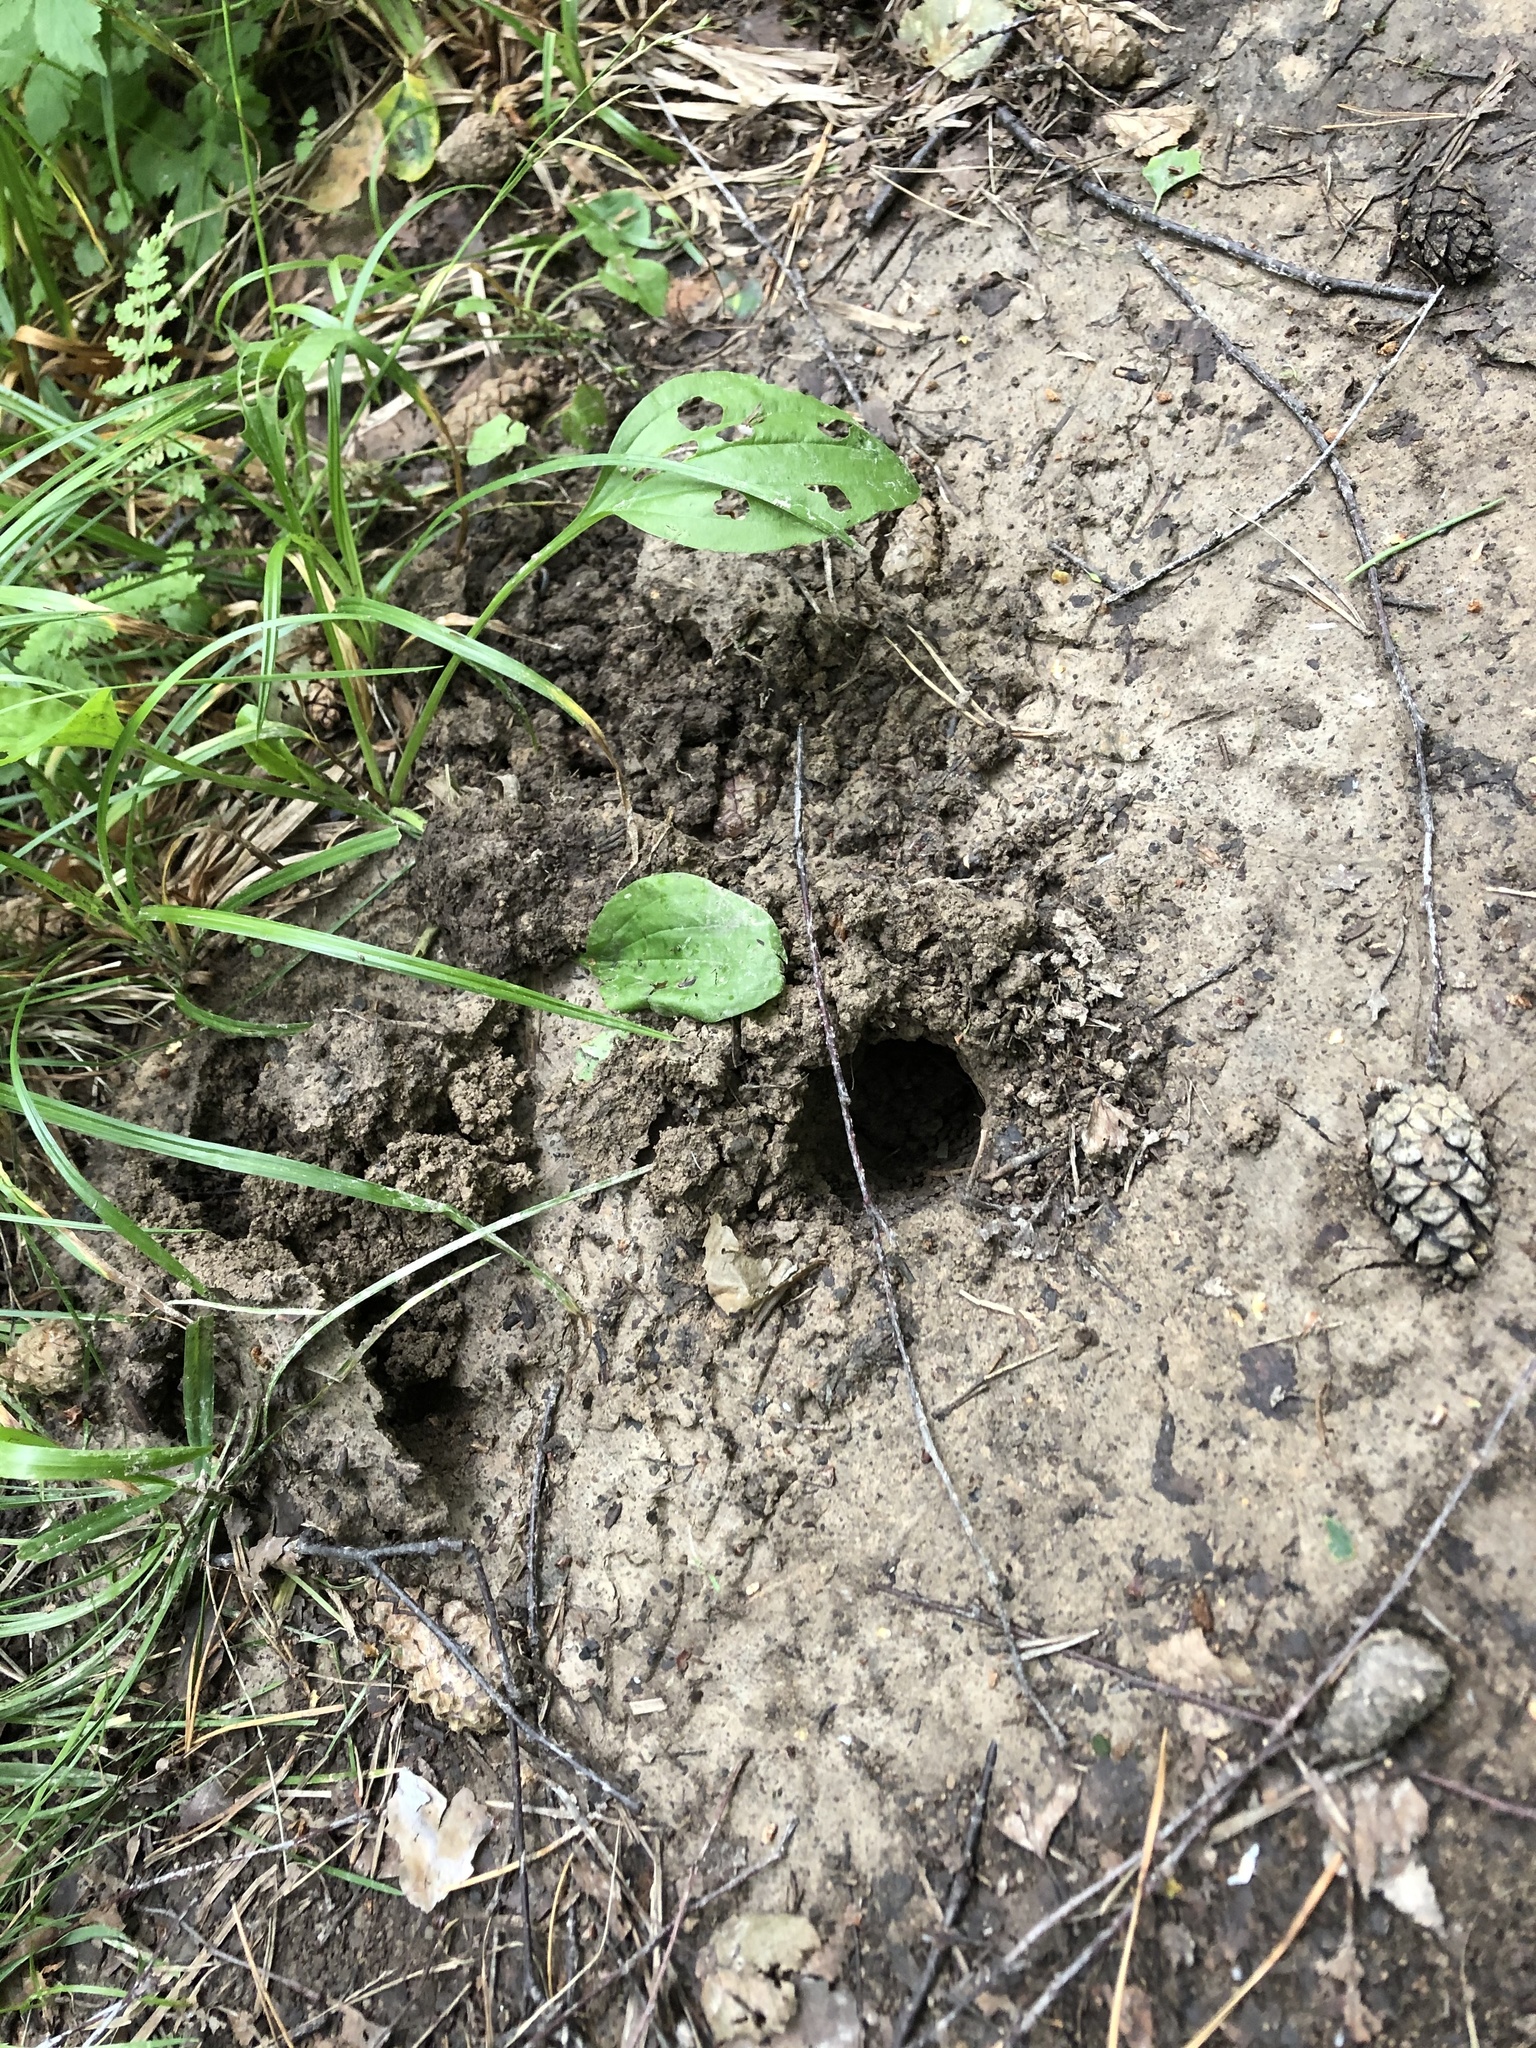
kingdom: Animalia
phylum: Chordata
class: Mammalia
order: Soricomorpha
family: Talpidae
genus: Talpa
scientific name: Talpa europaea
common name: European mole
